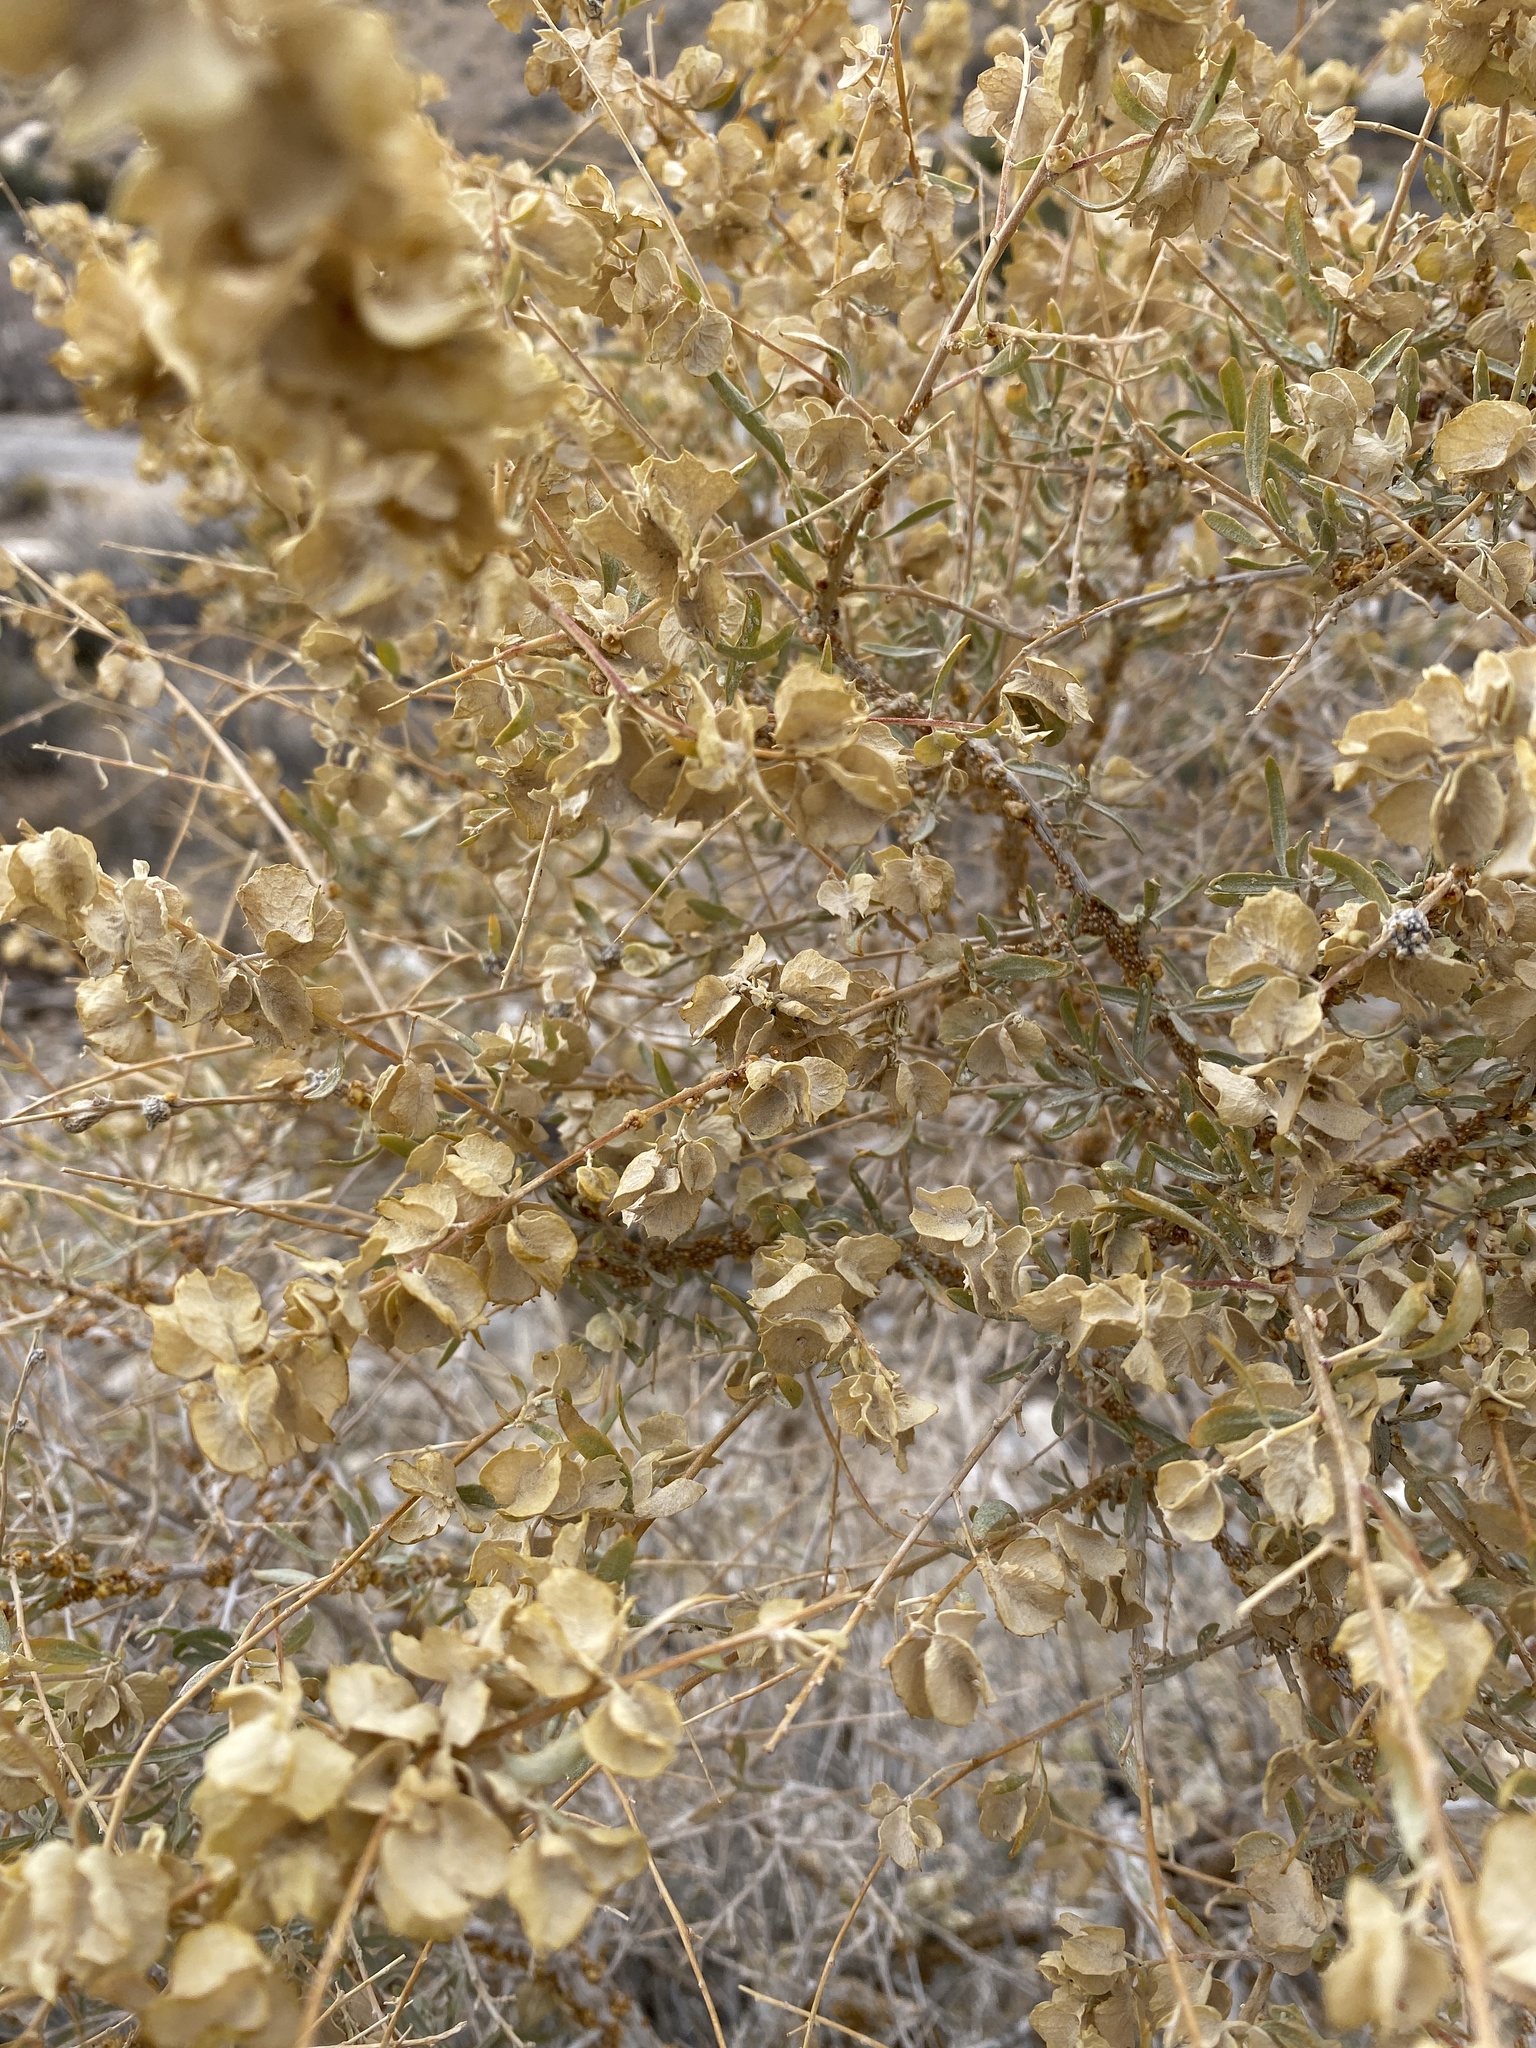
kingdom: Plantae
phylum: Tracheophyta
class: Magnoliopsida
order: Caryophyllales
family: Amaranthaceae
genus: Atriplex
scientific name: Atriplex canescens
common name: Four-wing saltbush
